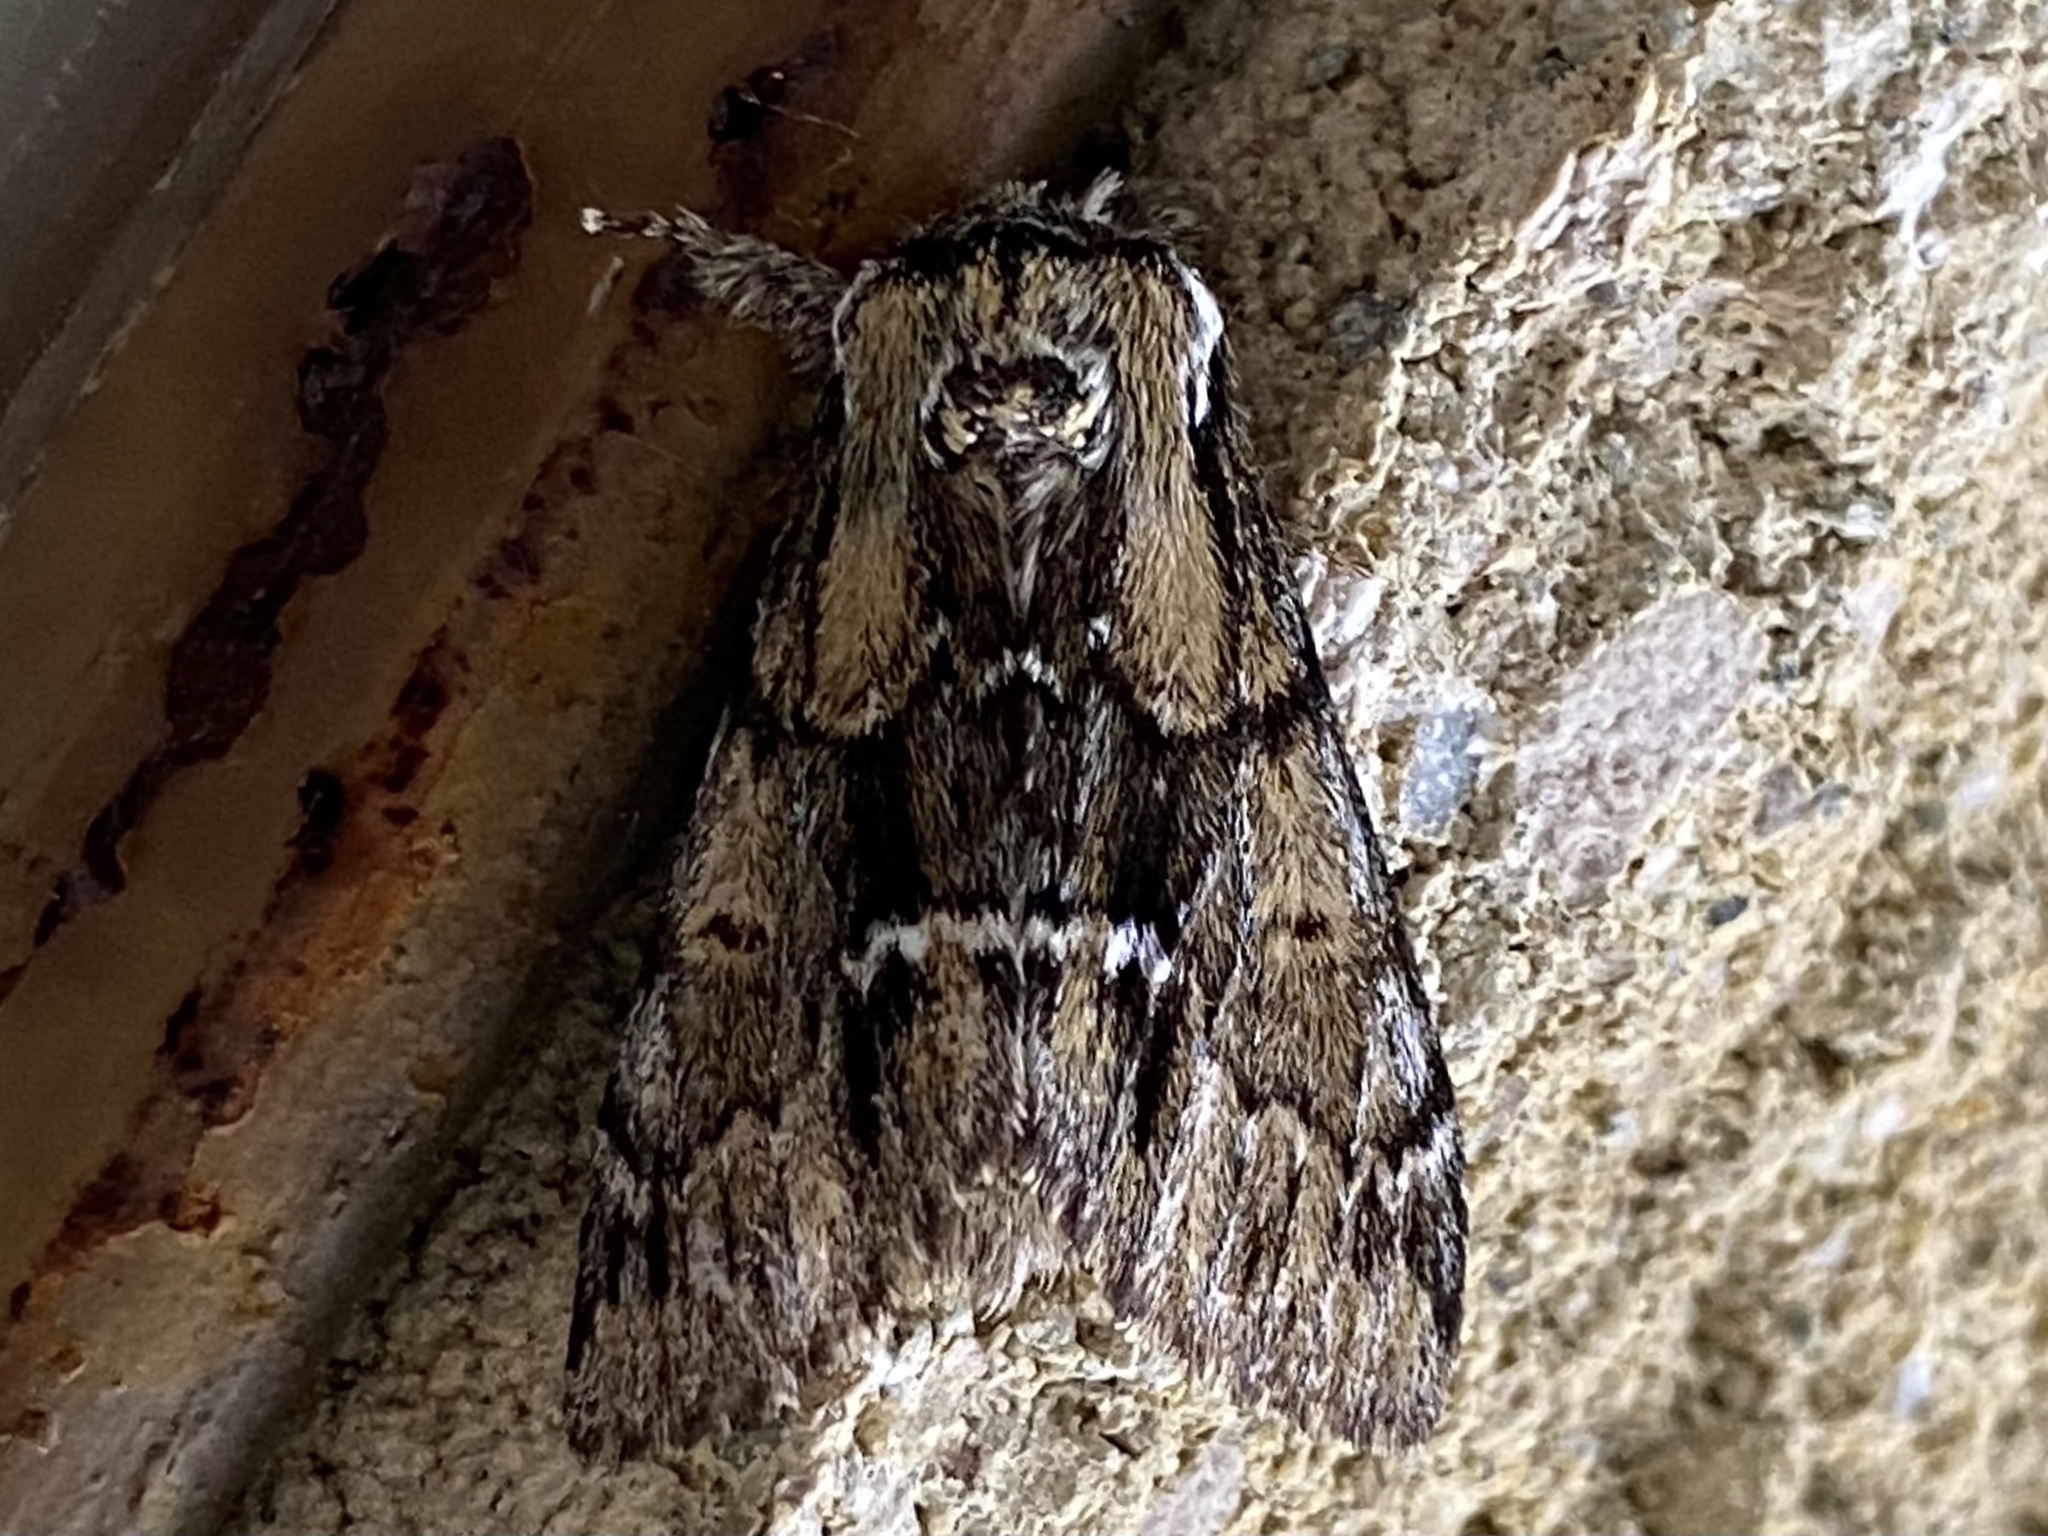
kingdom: Animalia
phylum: Arthropoda
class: Insecta
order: Lepidoptera
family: Notodontidae
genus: Paraeschra
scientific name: Paraeschra georgica
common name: Georgian prominent
